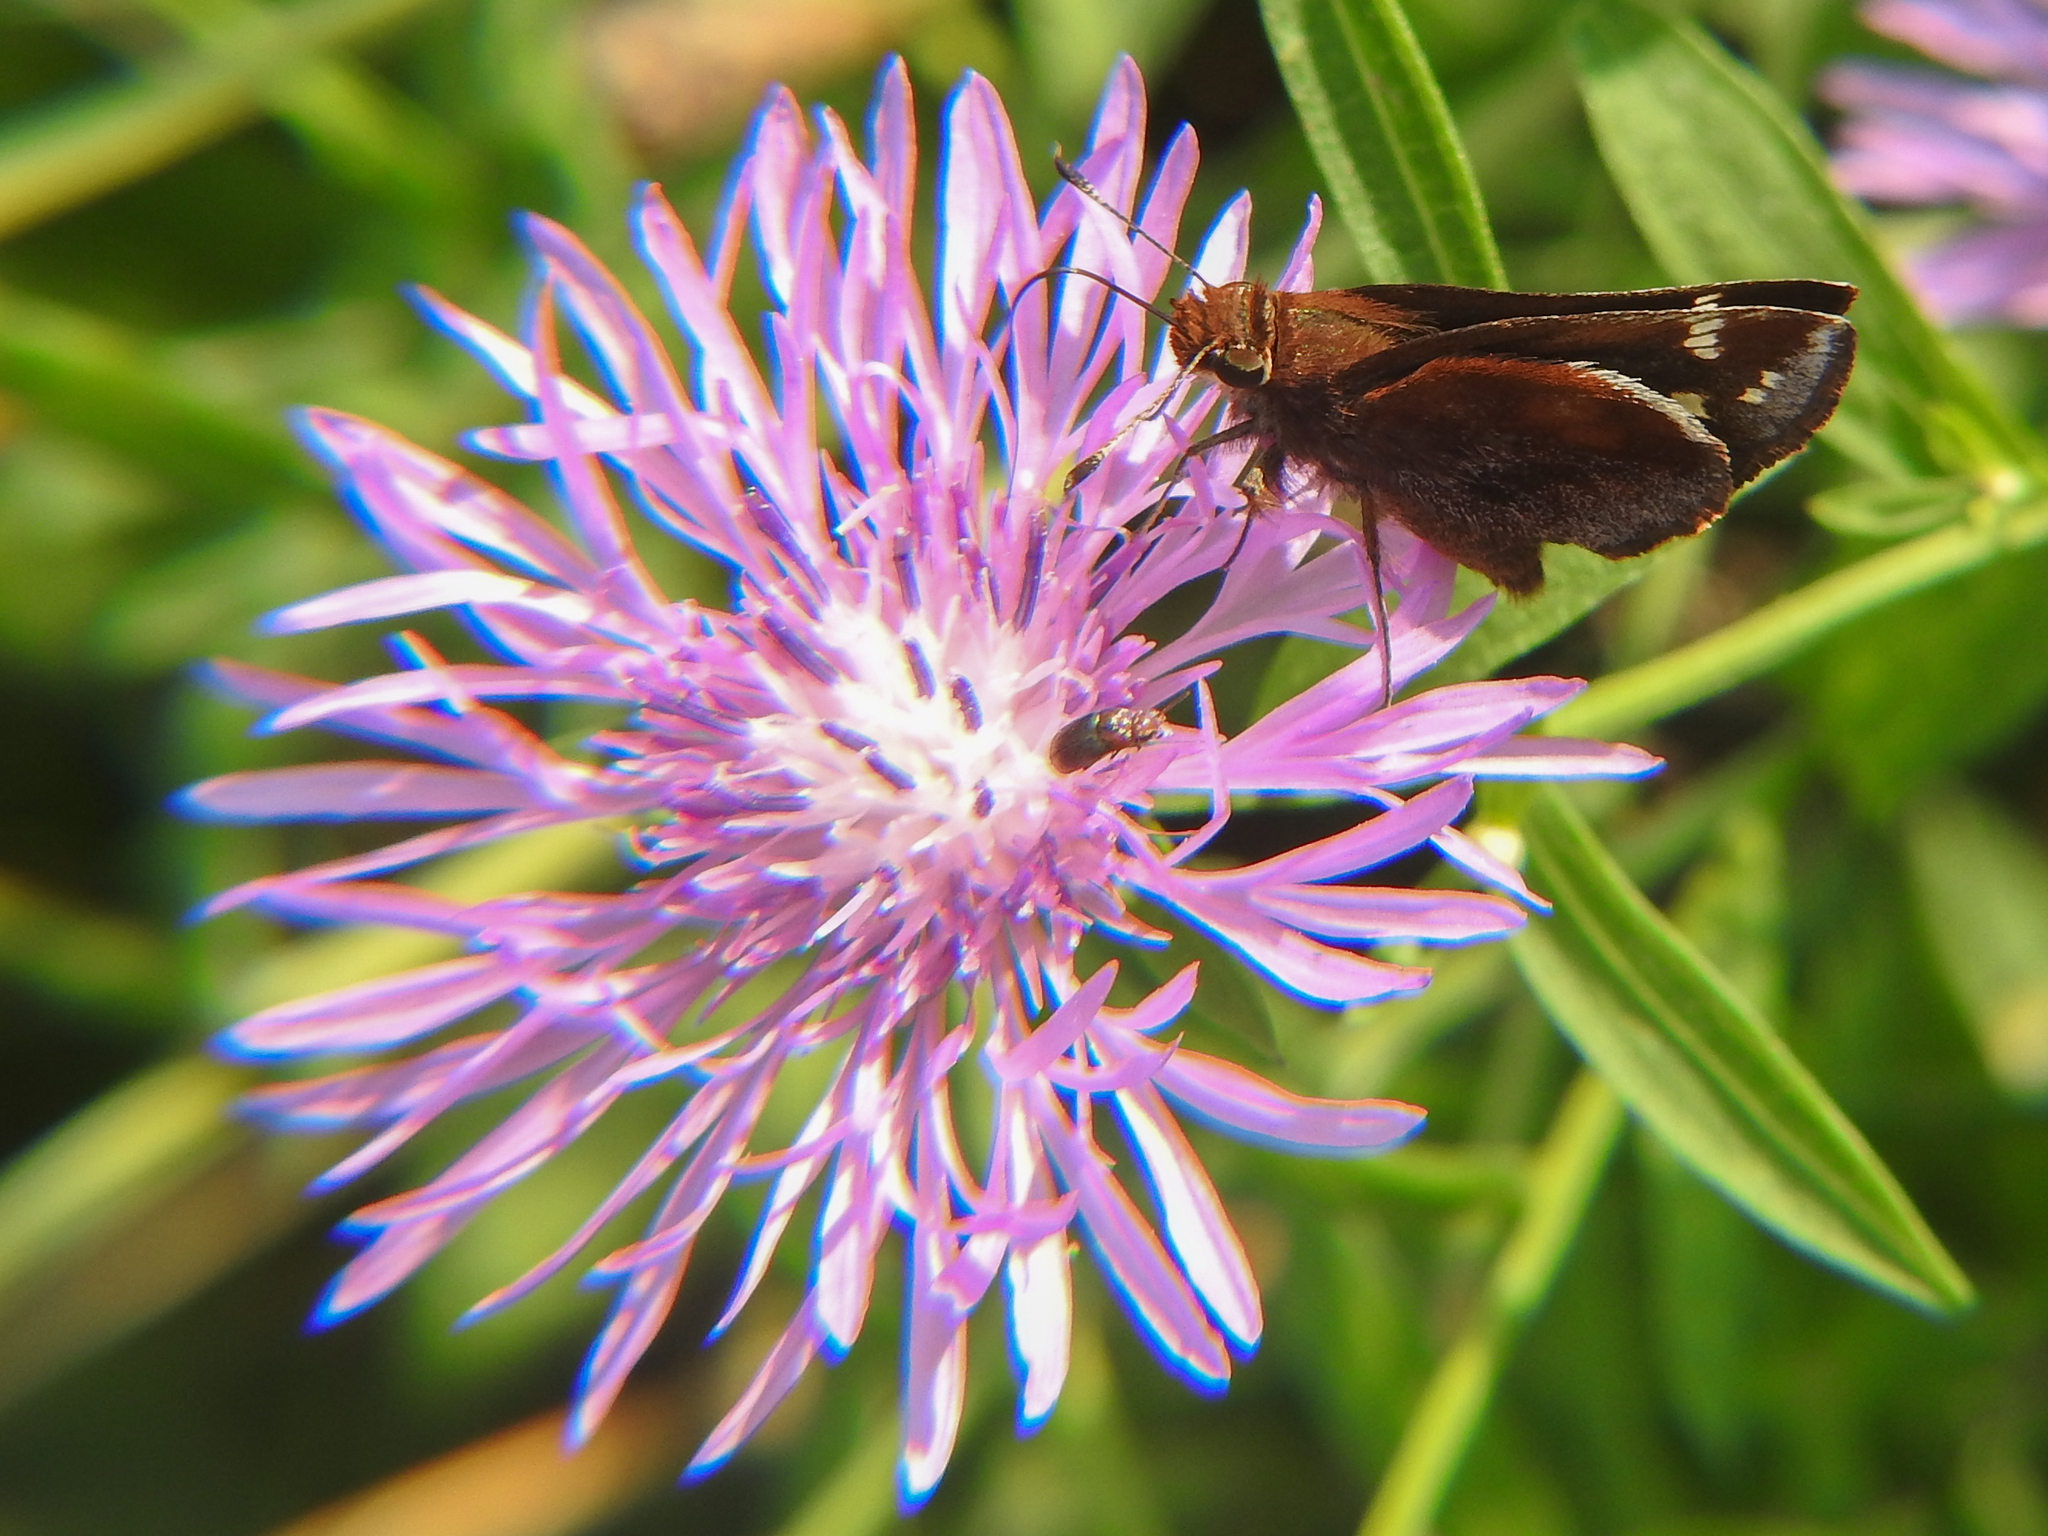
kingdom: Animalia
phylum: Arthropoda
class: Insecta
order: Lepidoptera
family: Hesperiidae
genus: Lon
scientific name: Lon zabulon
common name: Zabulon skipper
